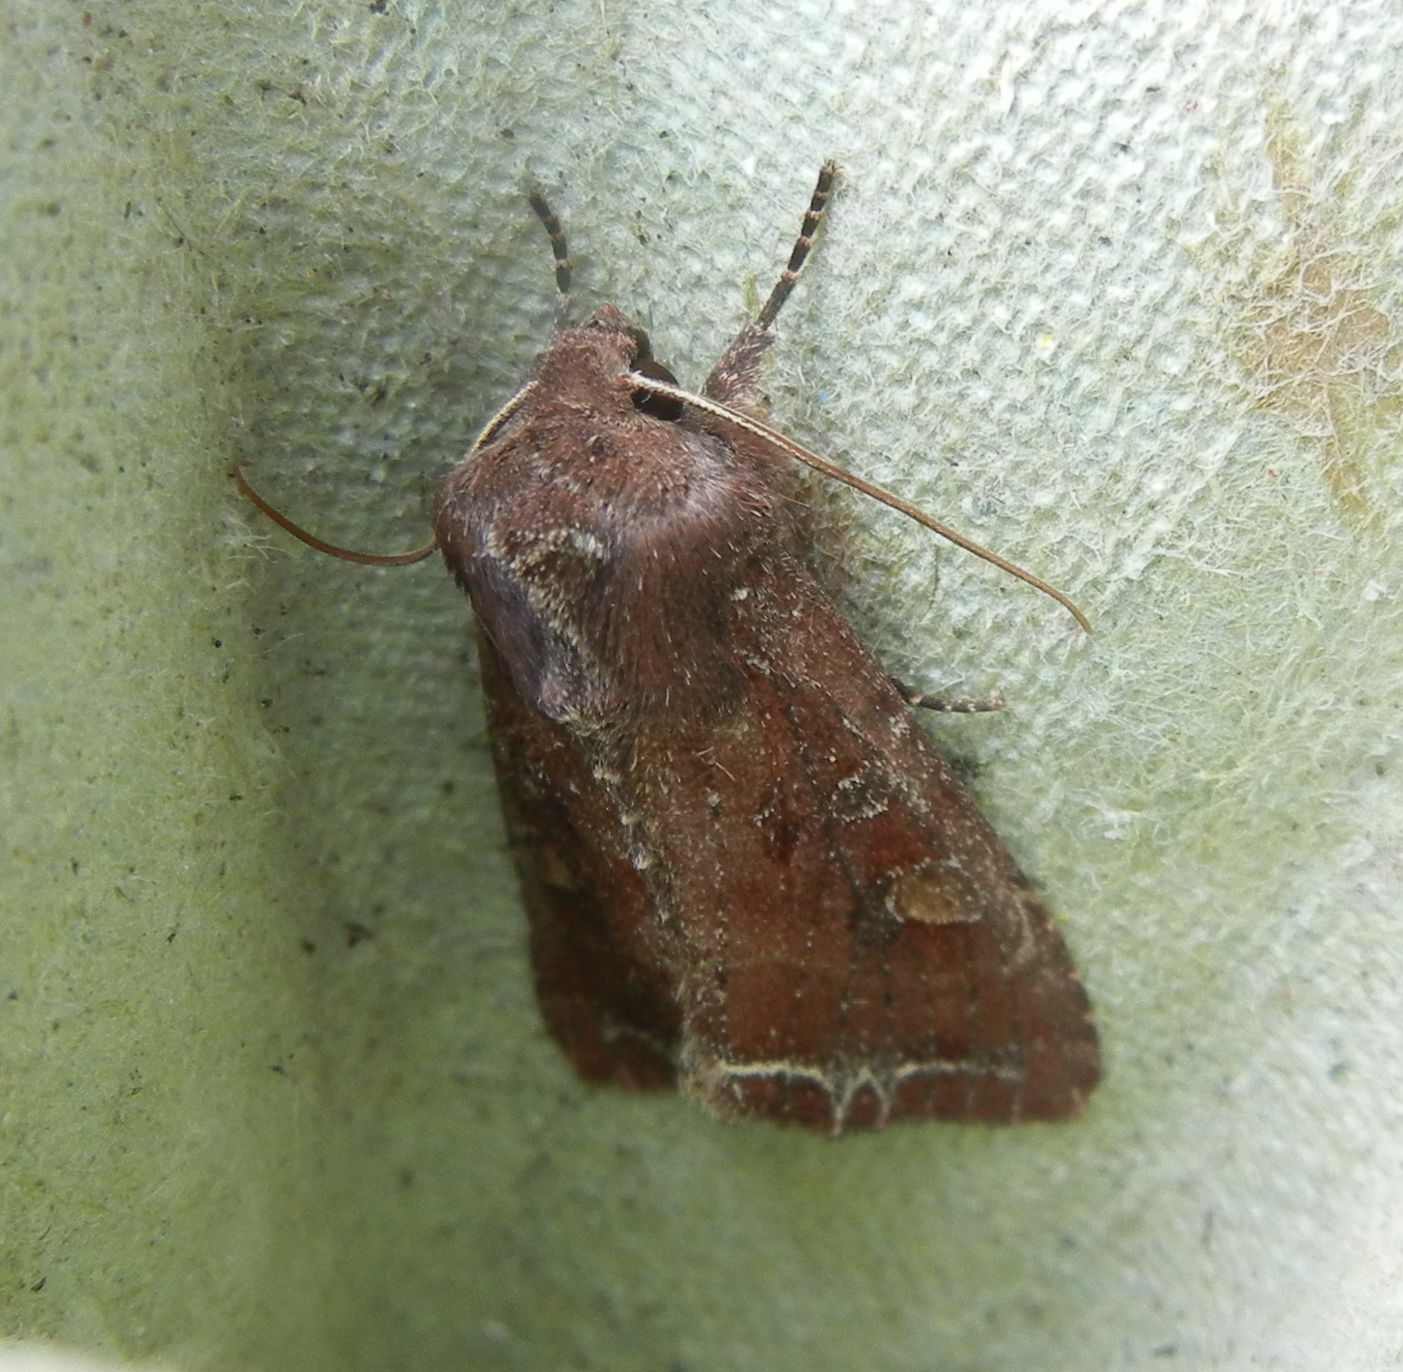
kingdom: Animalia
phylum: Arthropoda
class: Insecta
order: Lepidoptera
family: Noctuidae
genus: Lacanobia
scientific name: Lacanobia oleracea
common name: Bright-line brown-eye
